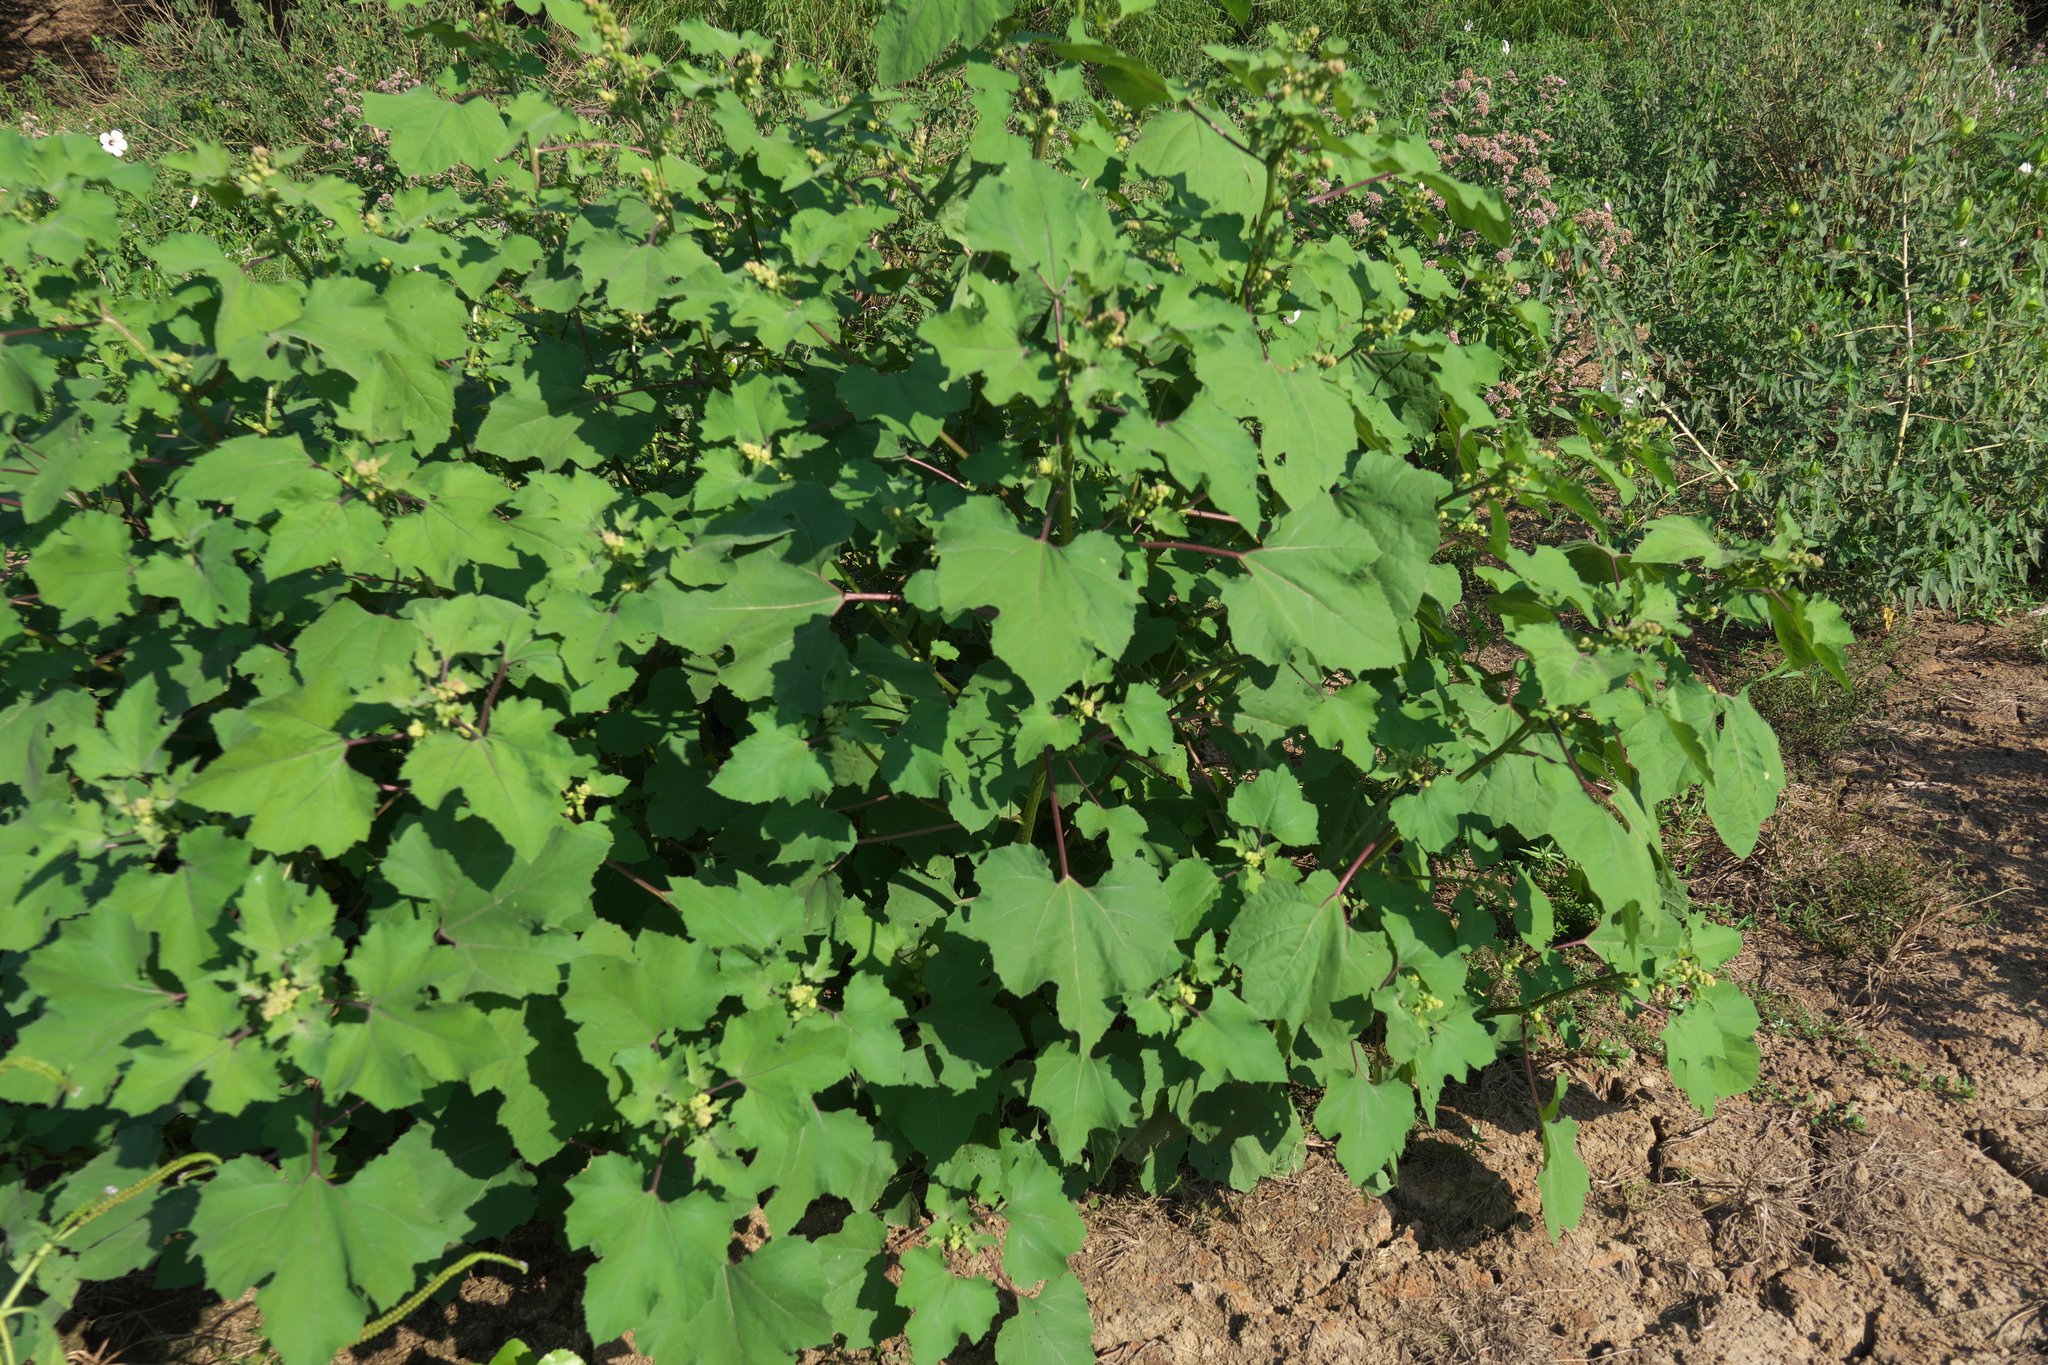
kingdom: Plantae
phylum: Tracheophyta
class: Magnoliopsida
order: Asterales
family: Asteraceae
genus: Xanthium
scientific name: Xanthium strumarium
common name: Rough cocklebur
